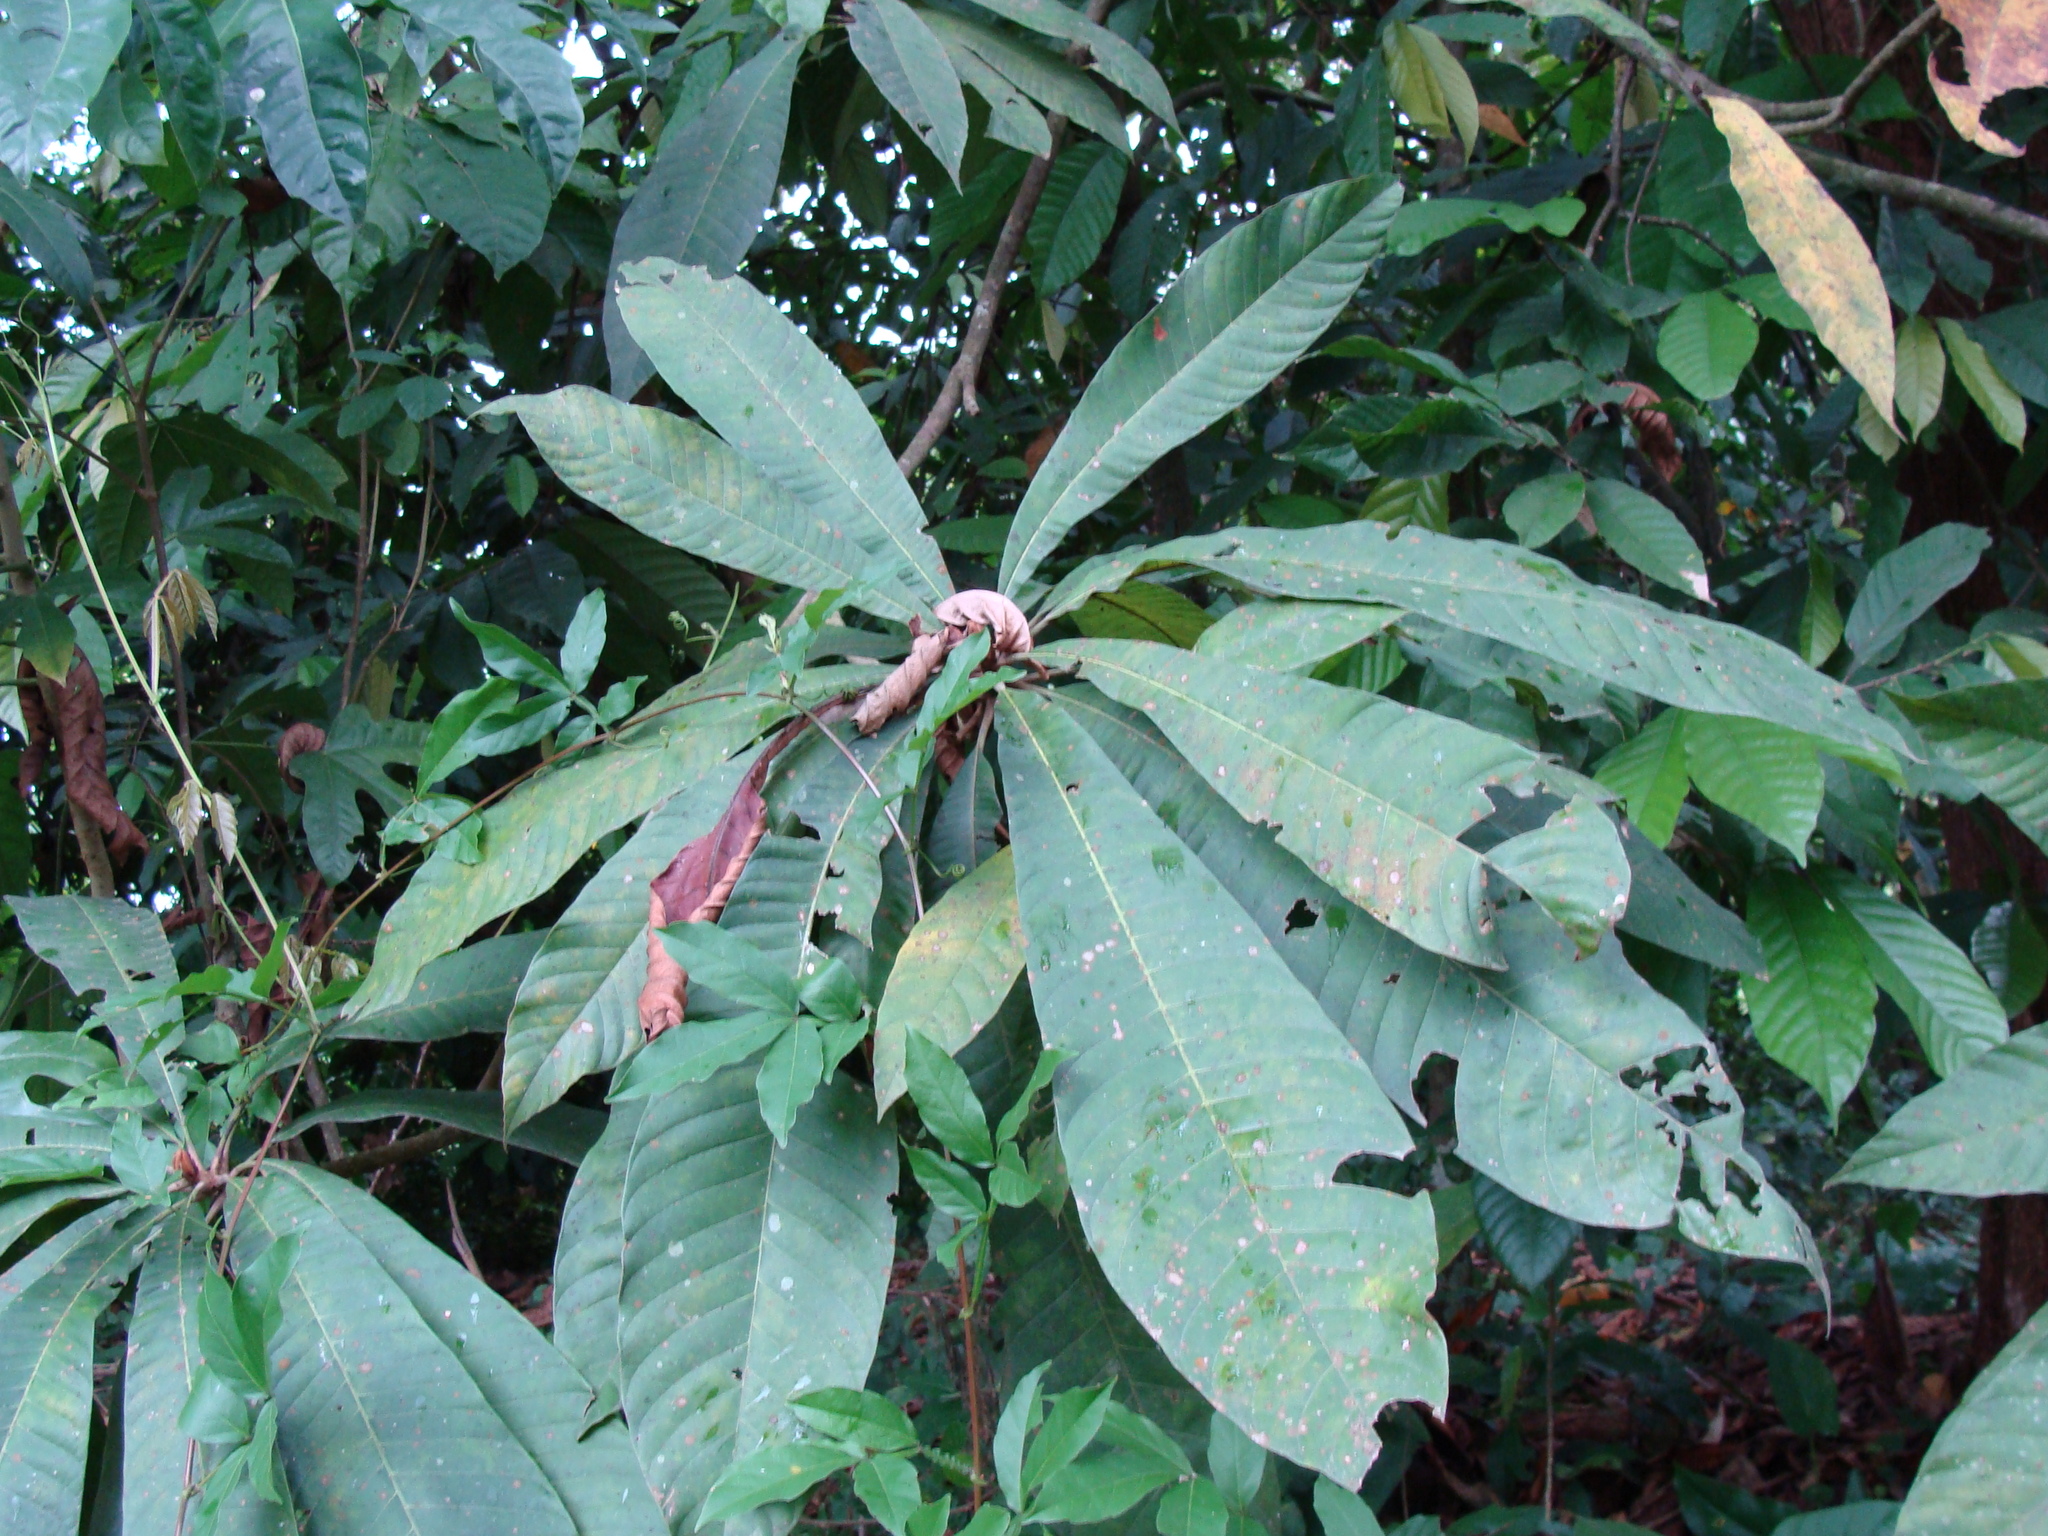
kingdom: Plantae
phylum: Tracheophyta
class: Magnoliopsida
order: Ericales
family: Sapotaceae
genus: Pouteria
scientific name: Pouteria sapota
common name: Mamey
